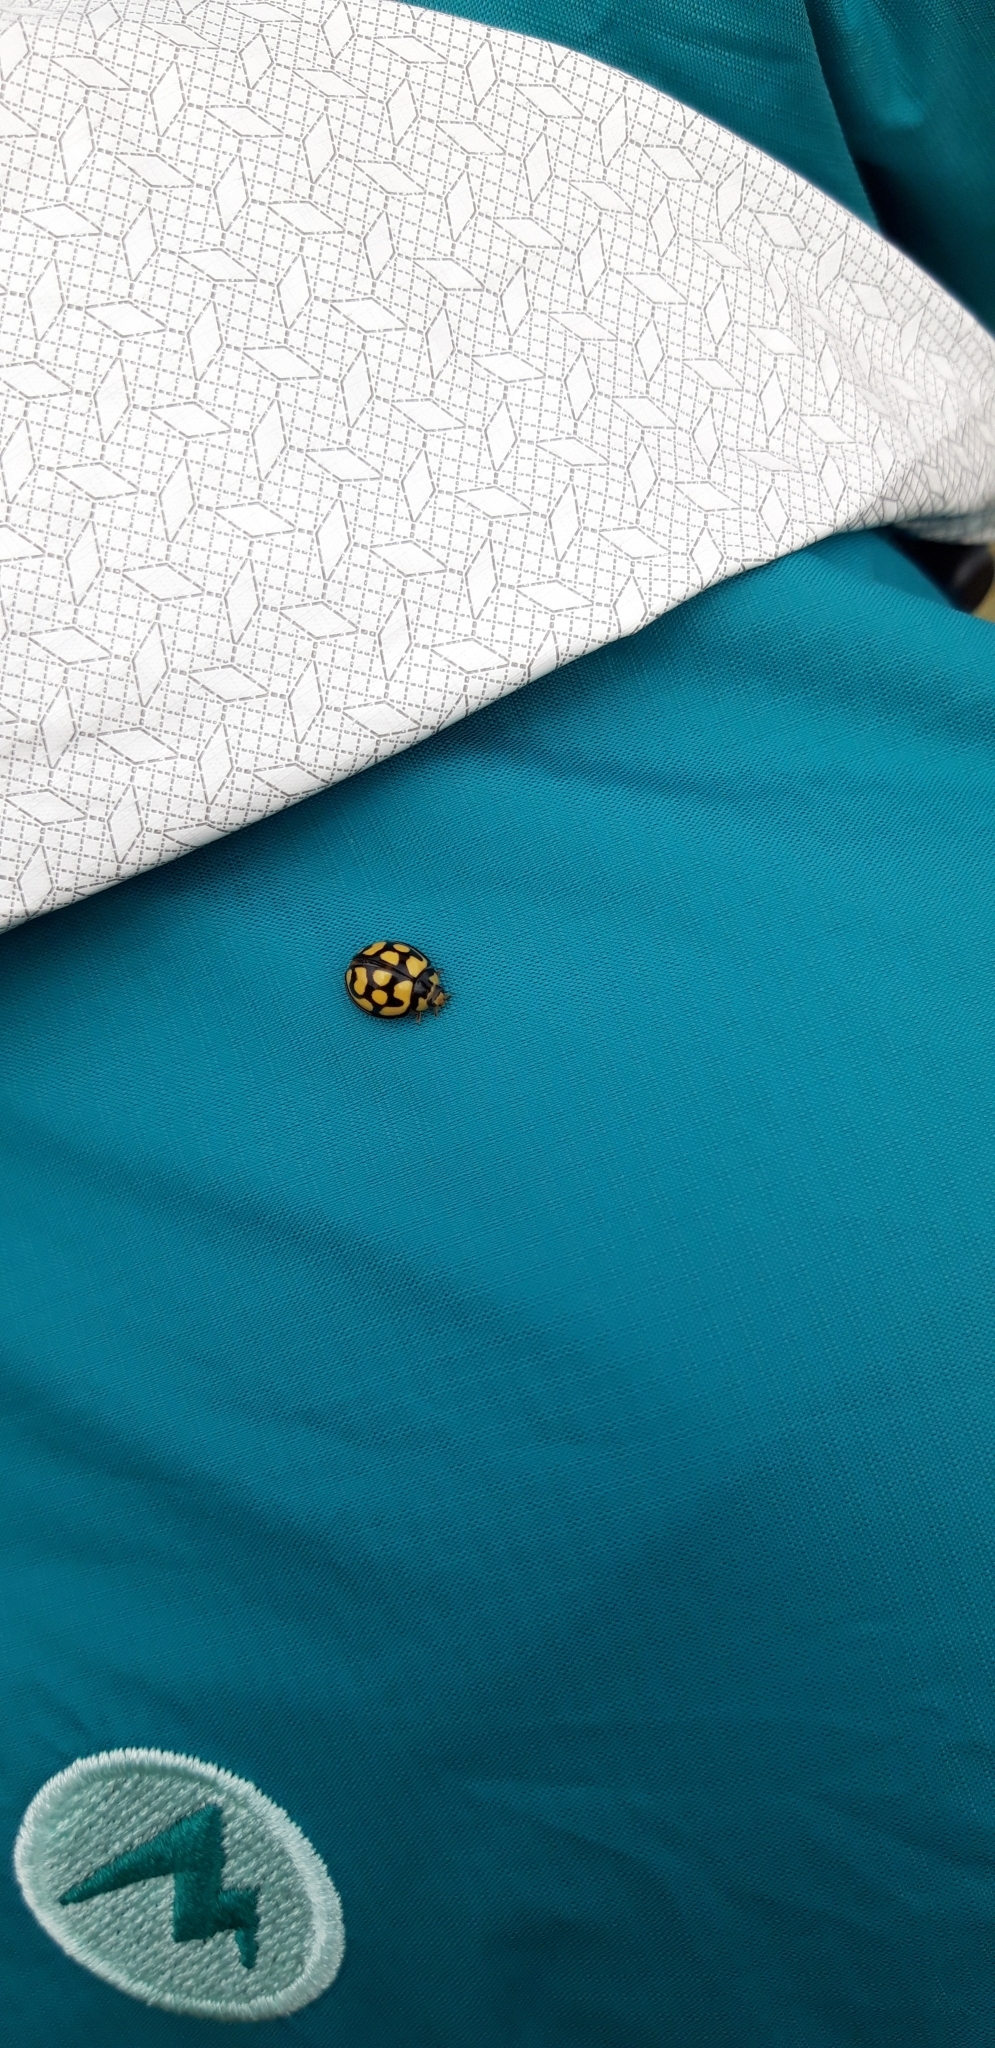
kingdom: Animalia
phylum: Arthropoda
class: Insecta
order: Coleoptera
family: Coccinellidae
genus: Cheilomenes
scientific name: Cheilomenes lunata
